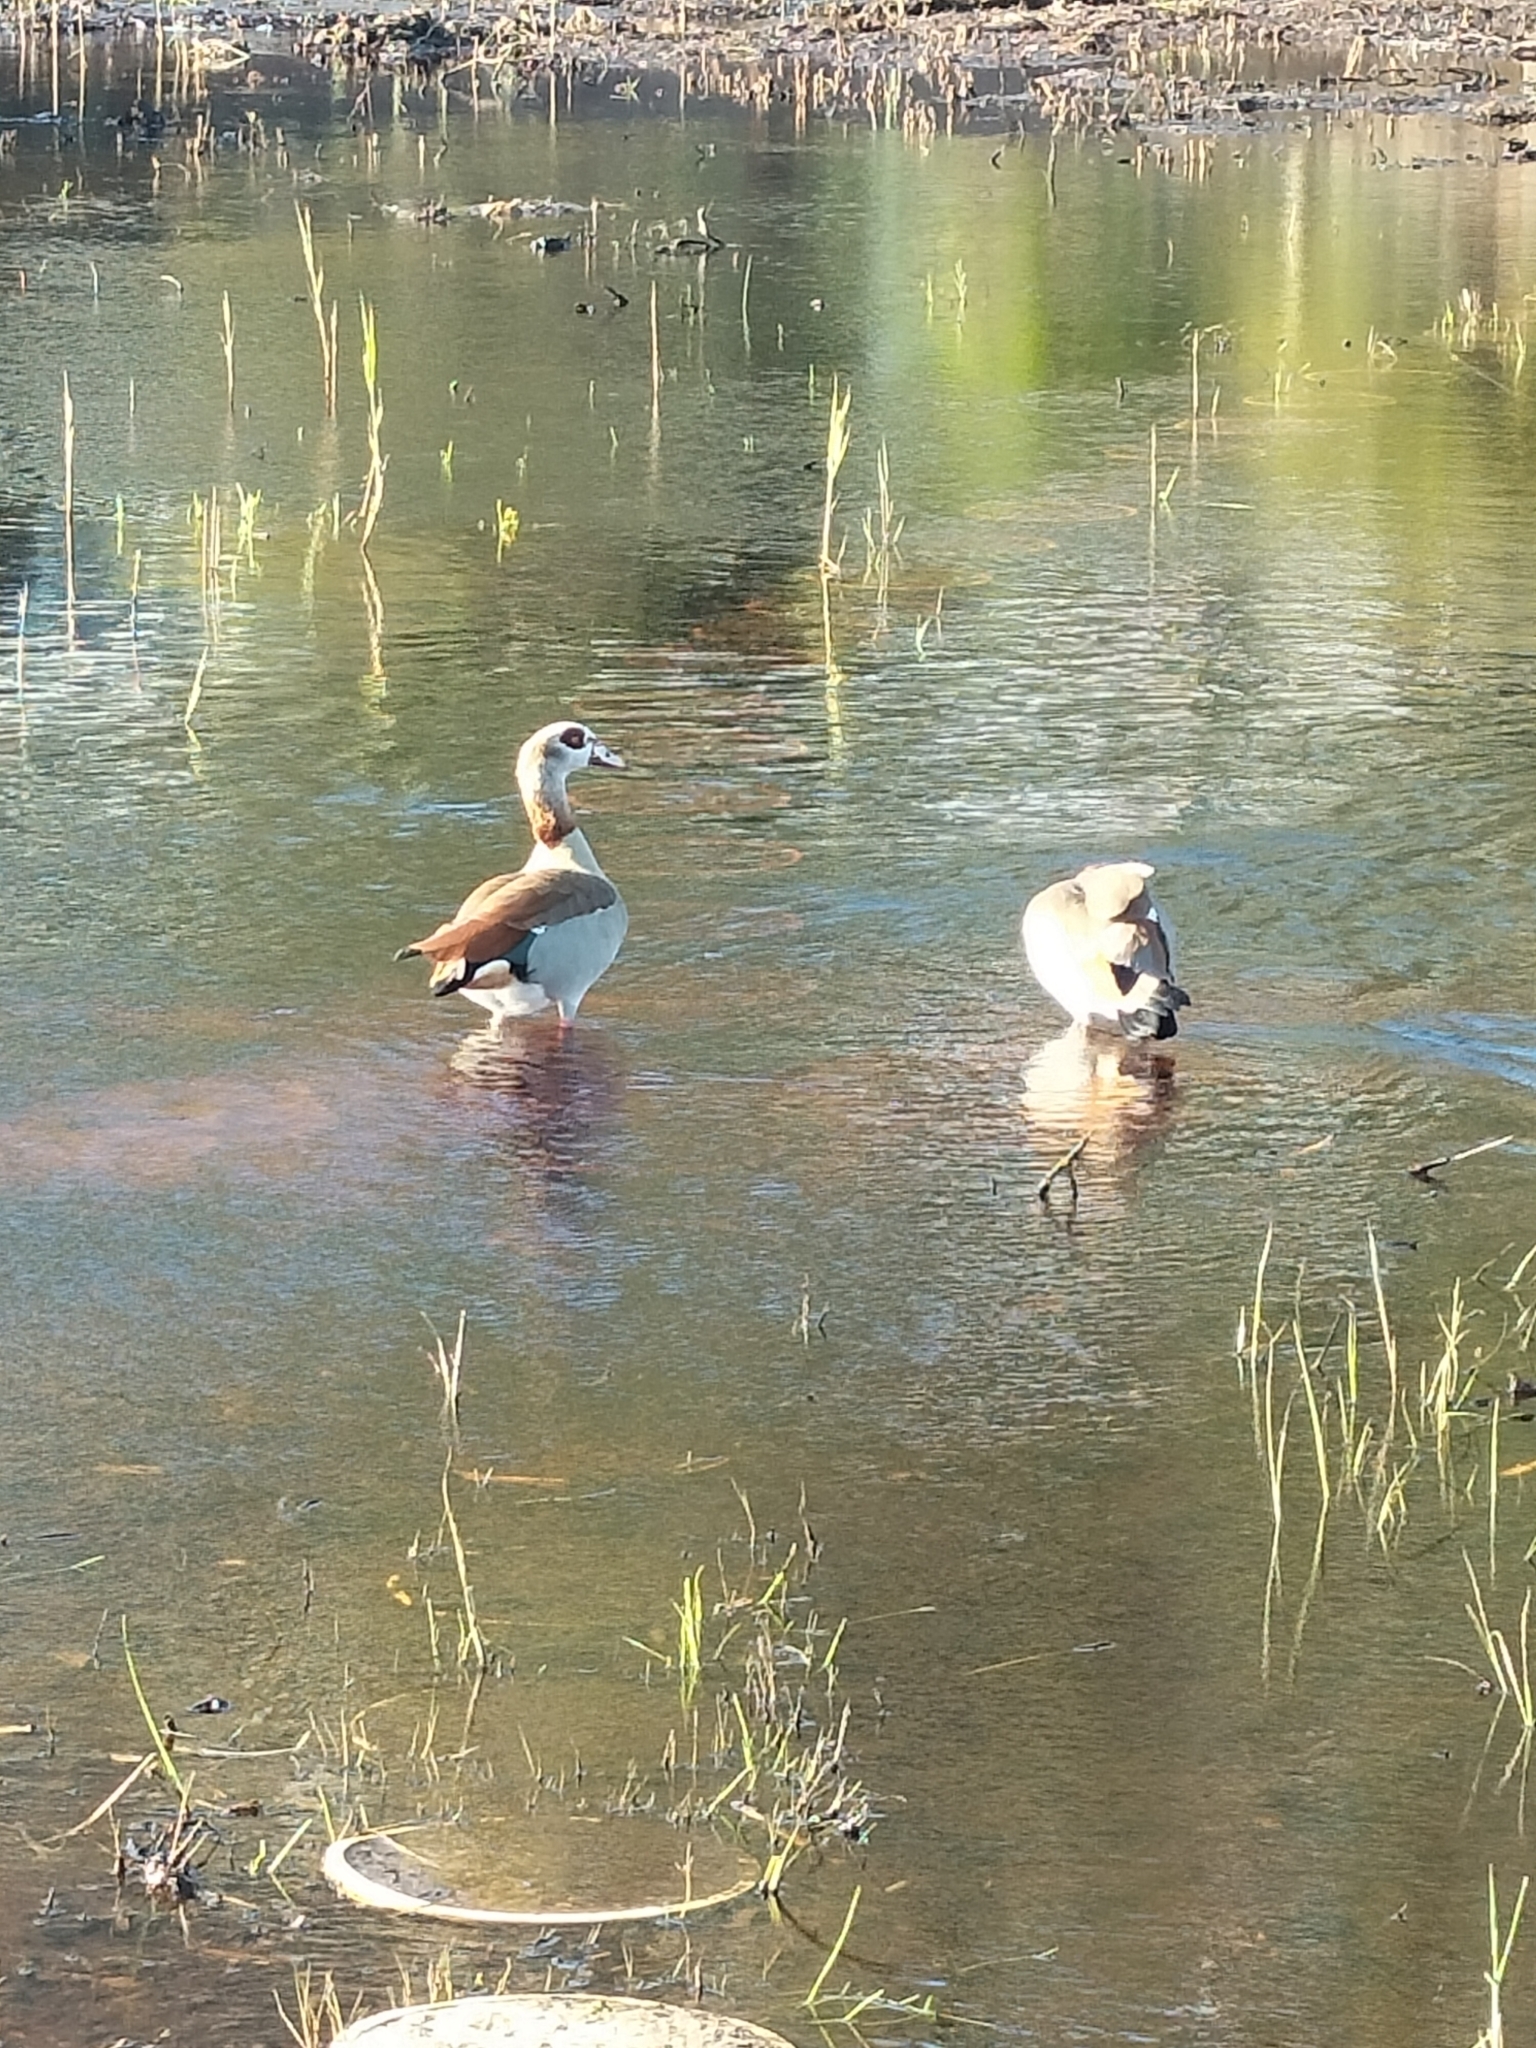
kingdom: Animalia
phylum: Chordata
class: Aves
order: Anseriformes
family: Anatidae
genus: Alopochen
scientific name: Alopochen aegyptiaca
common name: Egyptian goose
